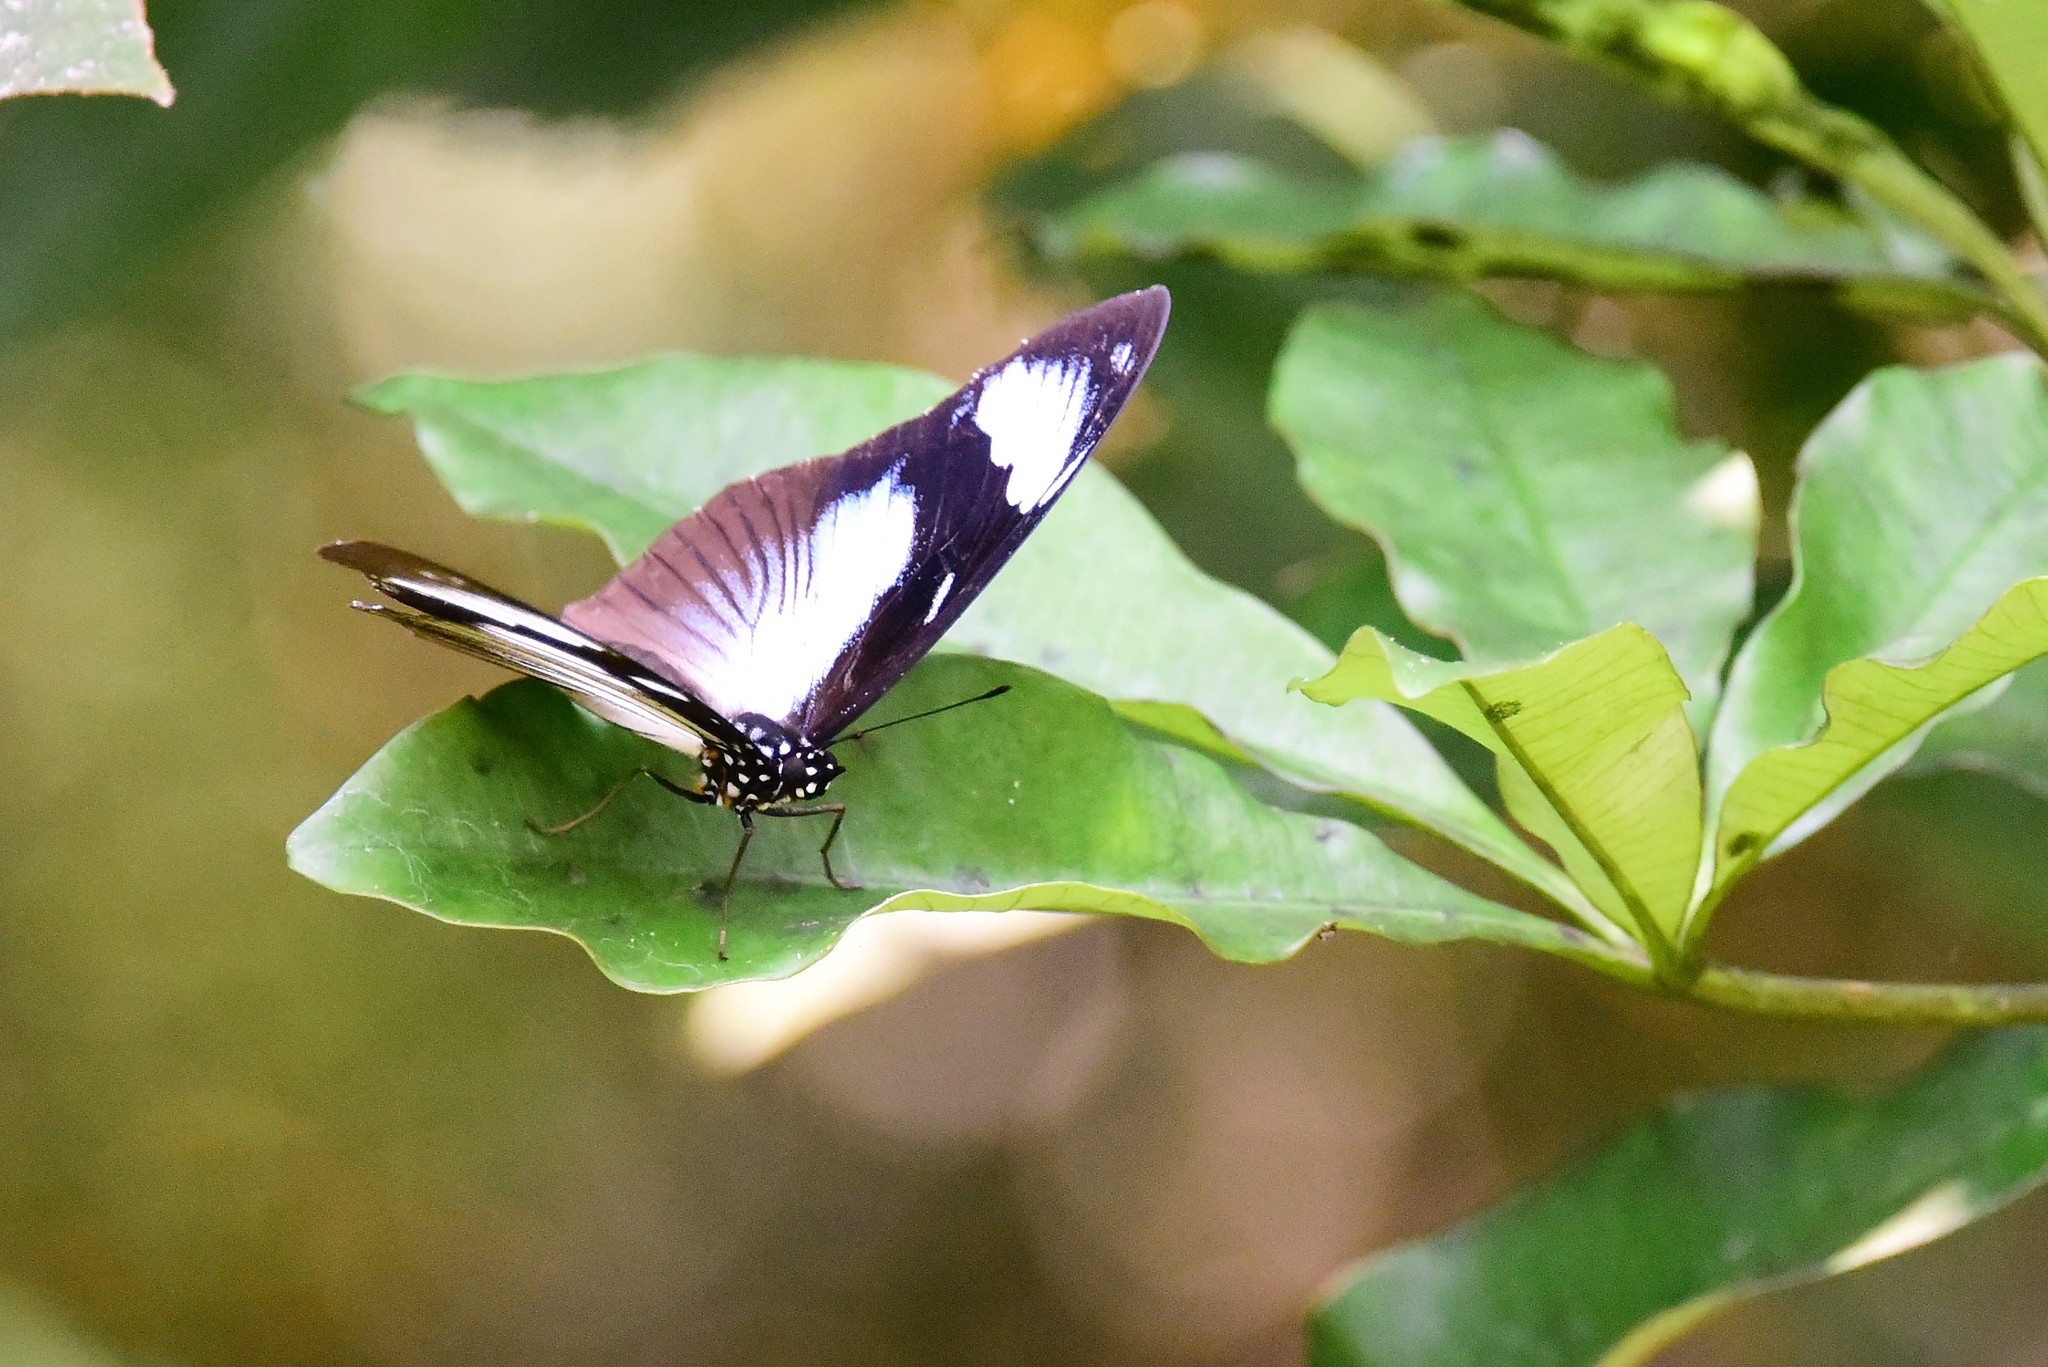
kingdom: Animalia
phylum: Arthropoda
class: Insecta
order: Lepidoptera
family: Nymphalidae
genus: Hypolimnas
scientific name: Hypolimnas dubius
